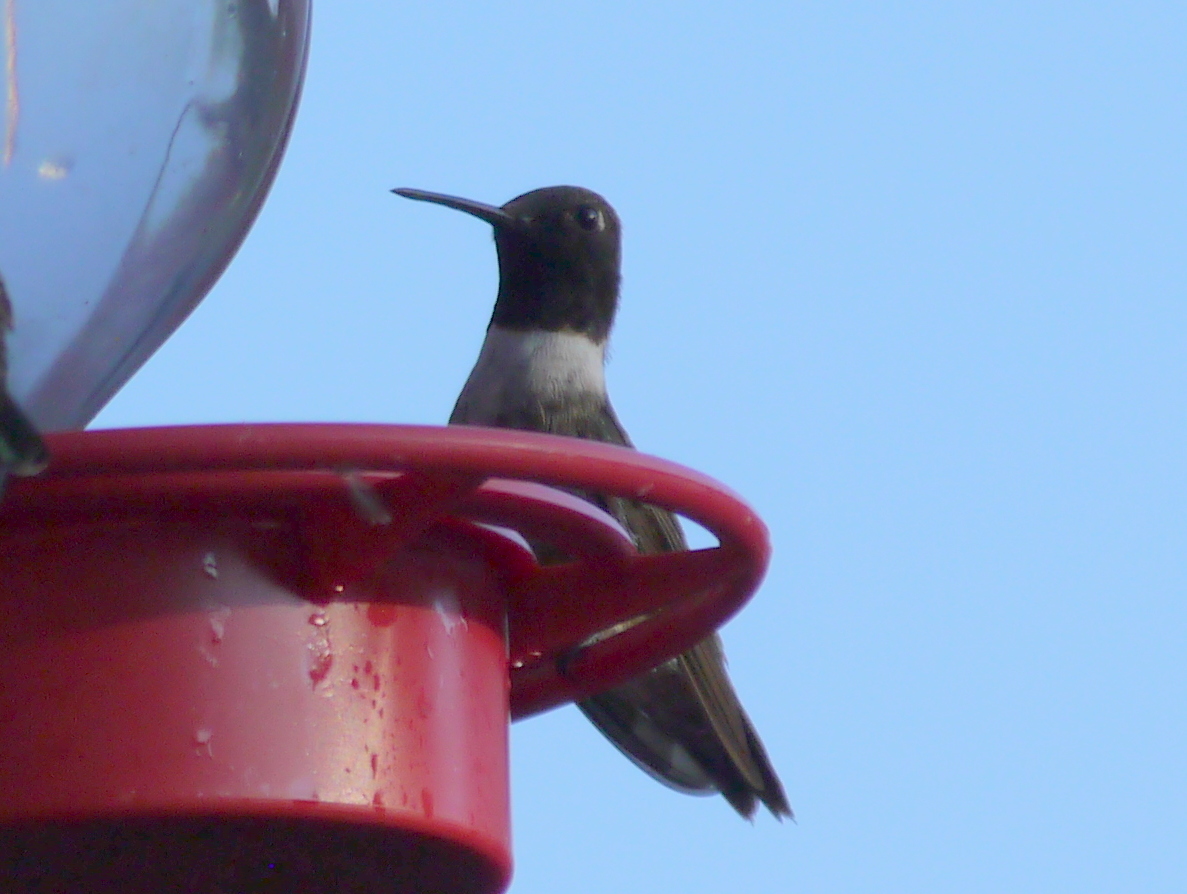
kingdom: Animalia
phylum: Chordata
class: Aves
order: Apodiformes
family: Trochilidae
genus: Archilochus
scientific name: Archilochus alexandri
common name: Black-chinned hummingbird
